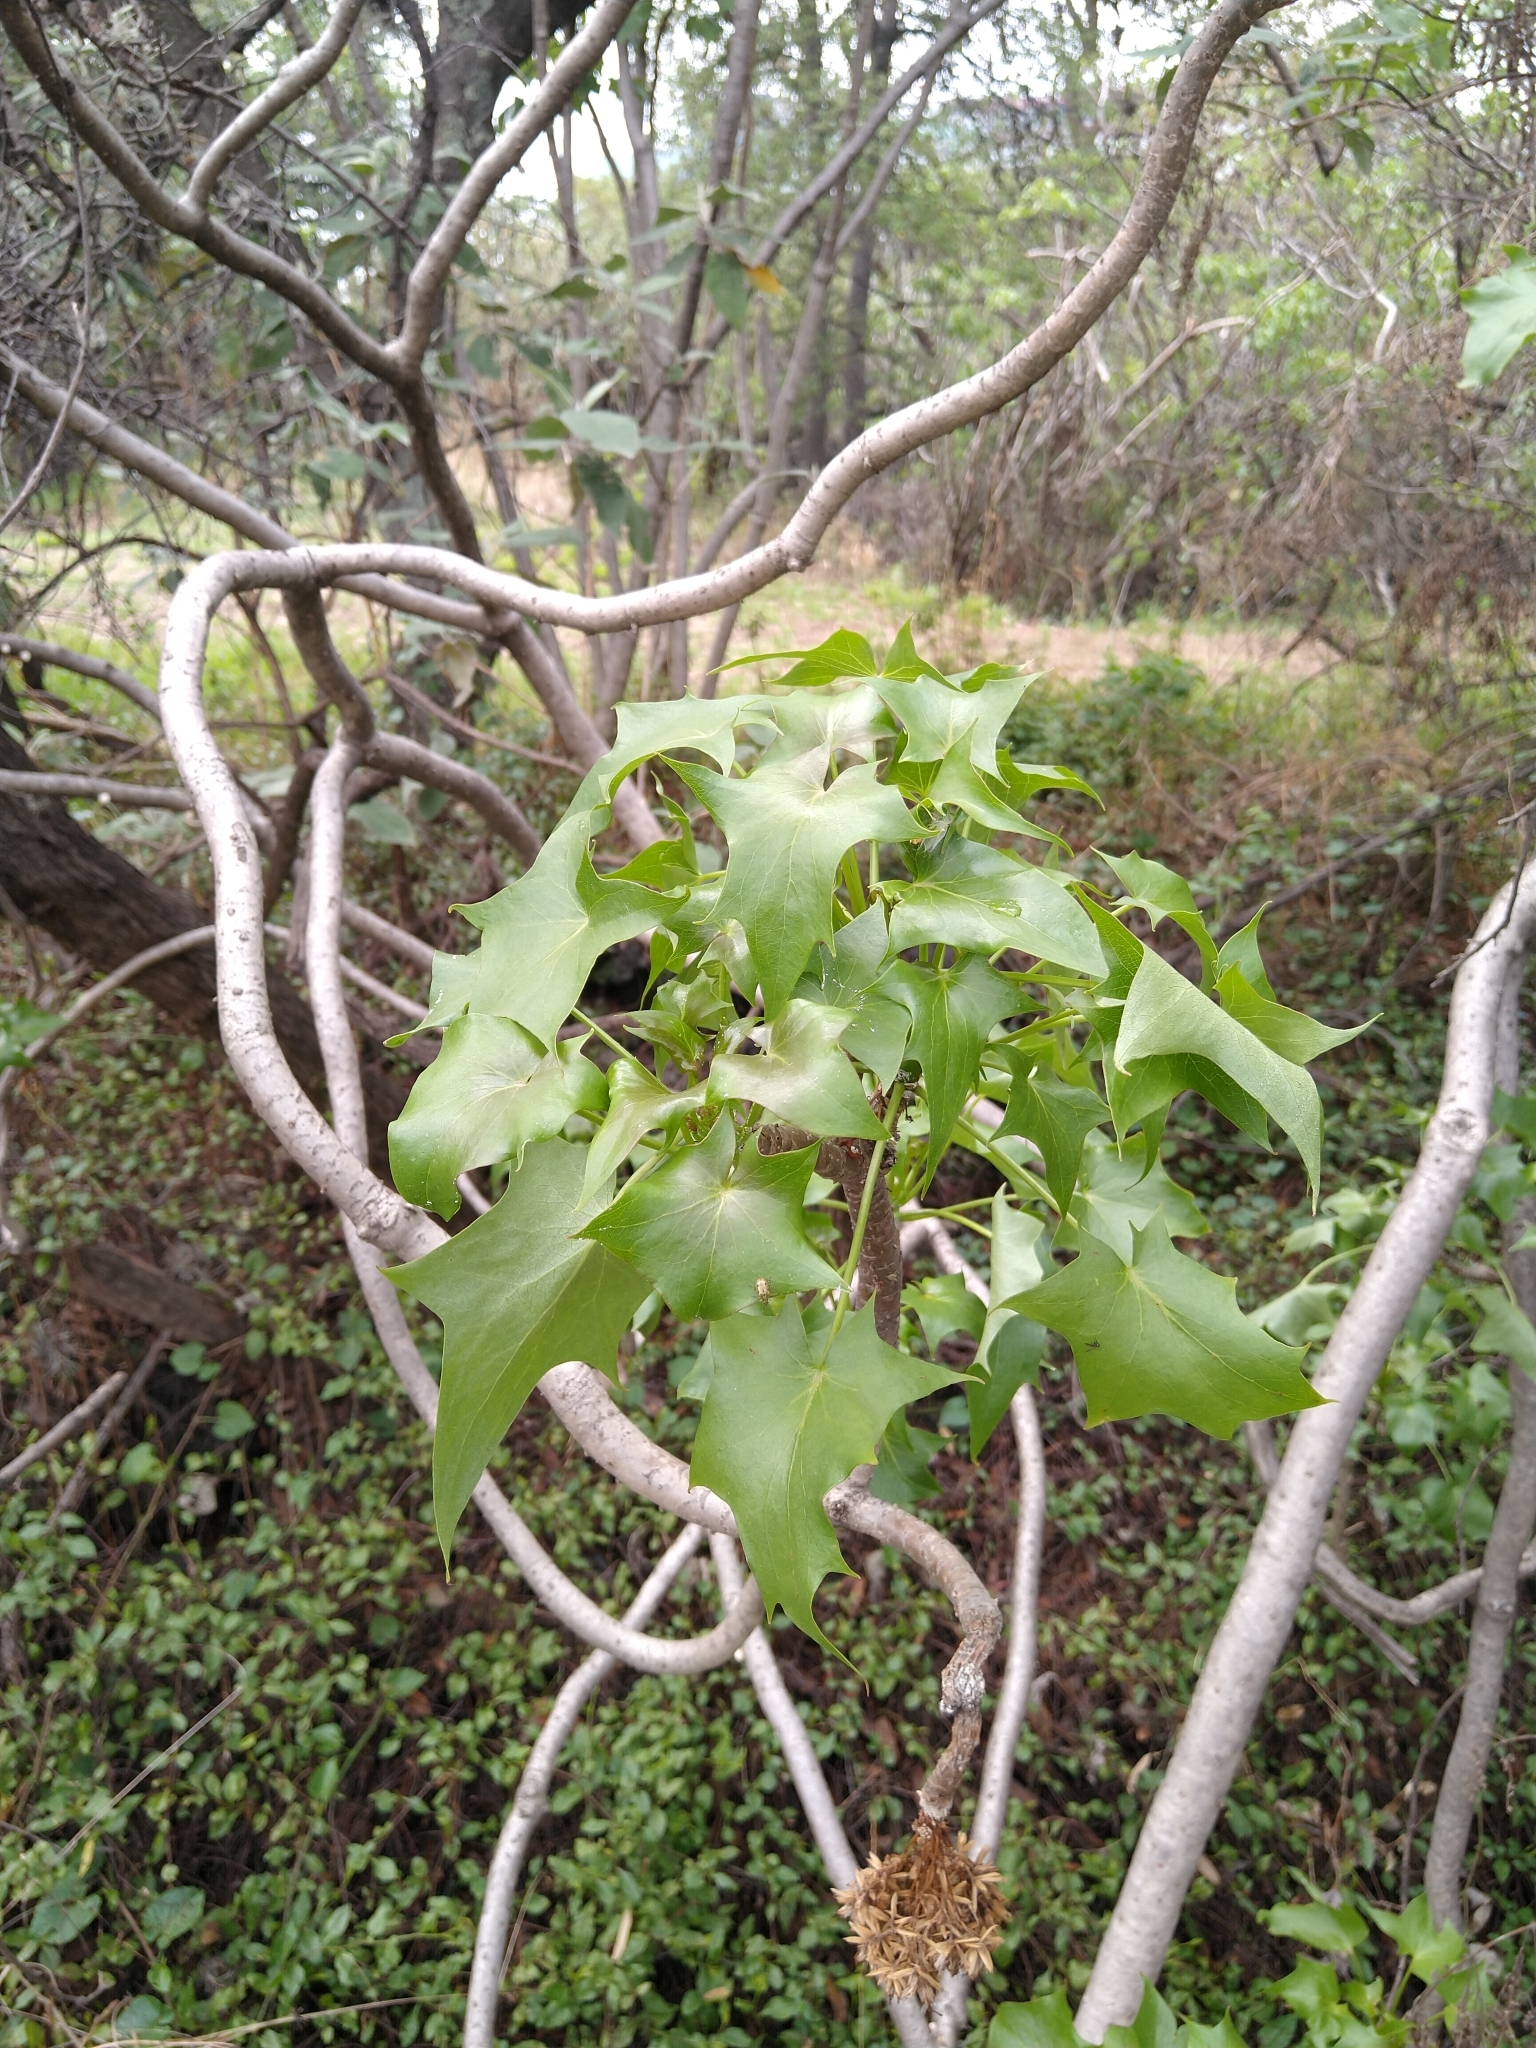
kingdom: Plantae
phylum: Tracheophyta
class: Magnoliopsida
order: Asterales
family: Asteraceae
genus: Pittocaulon
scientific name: Pittocaulon praecox
